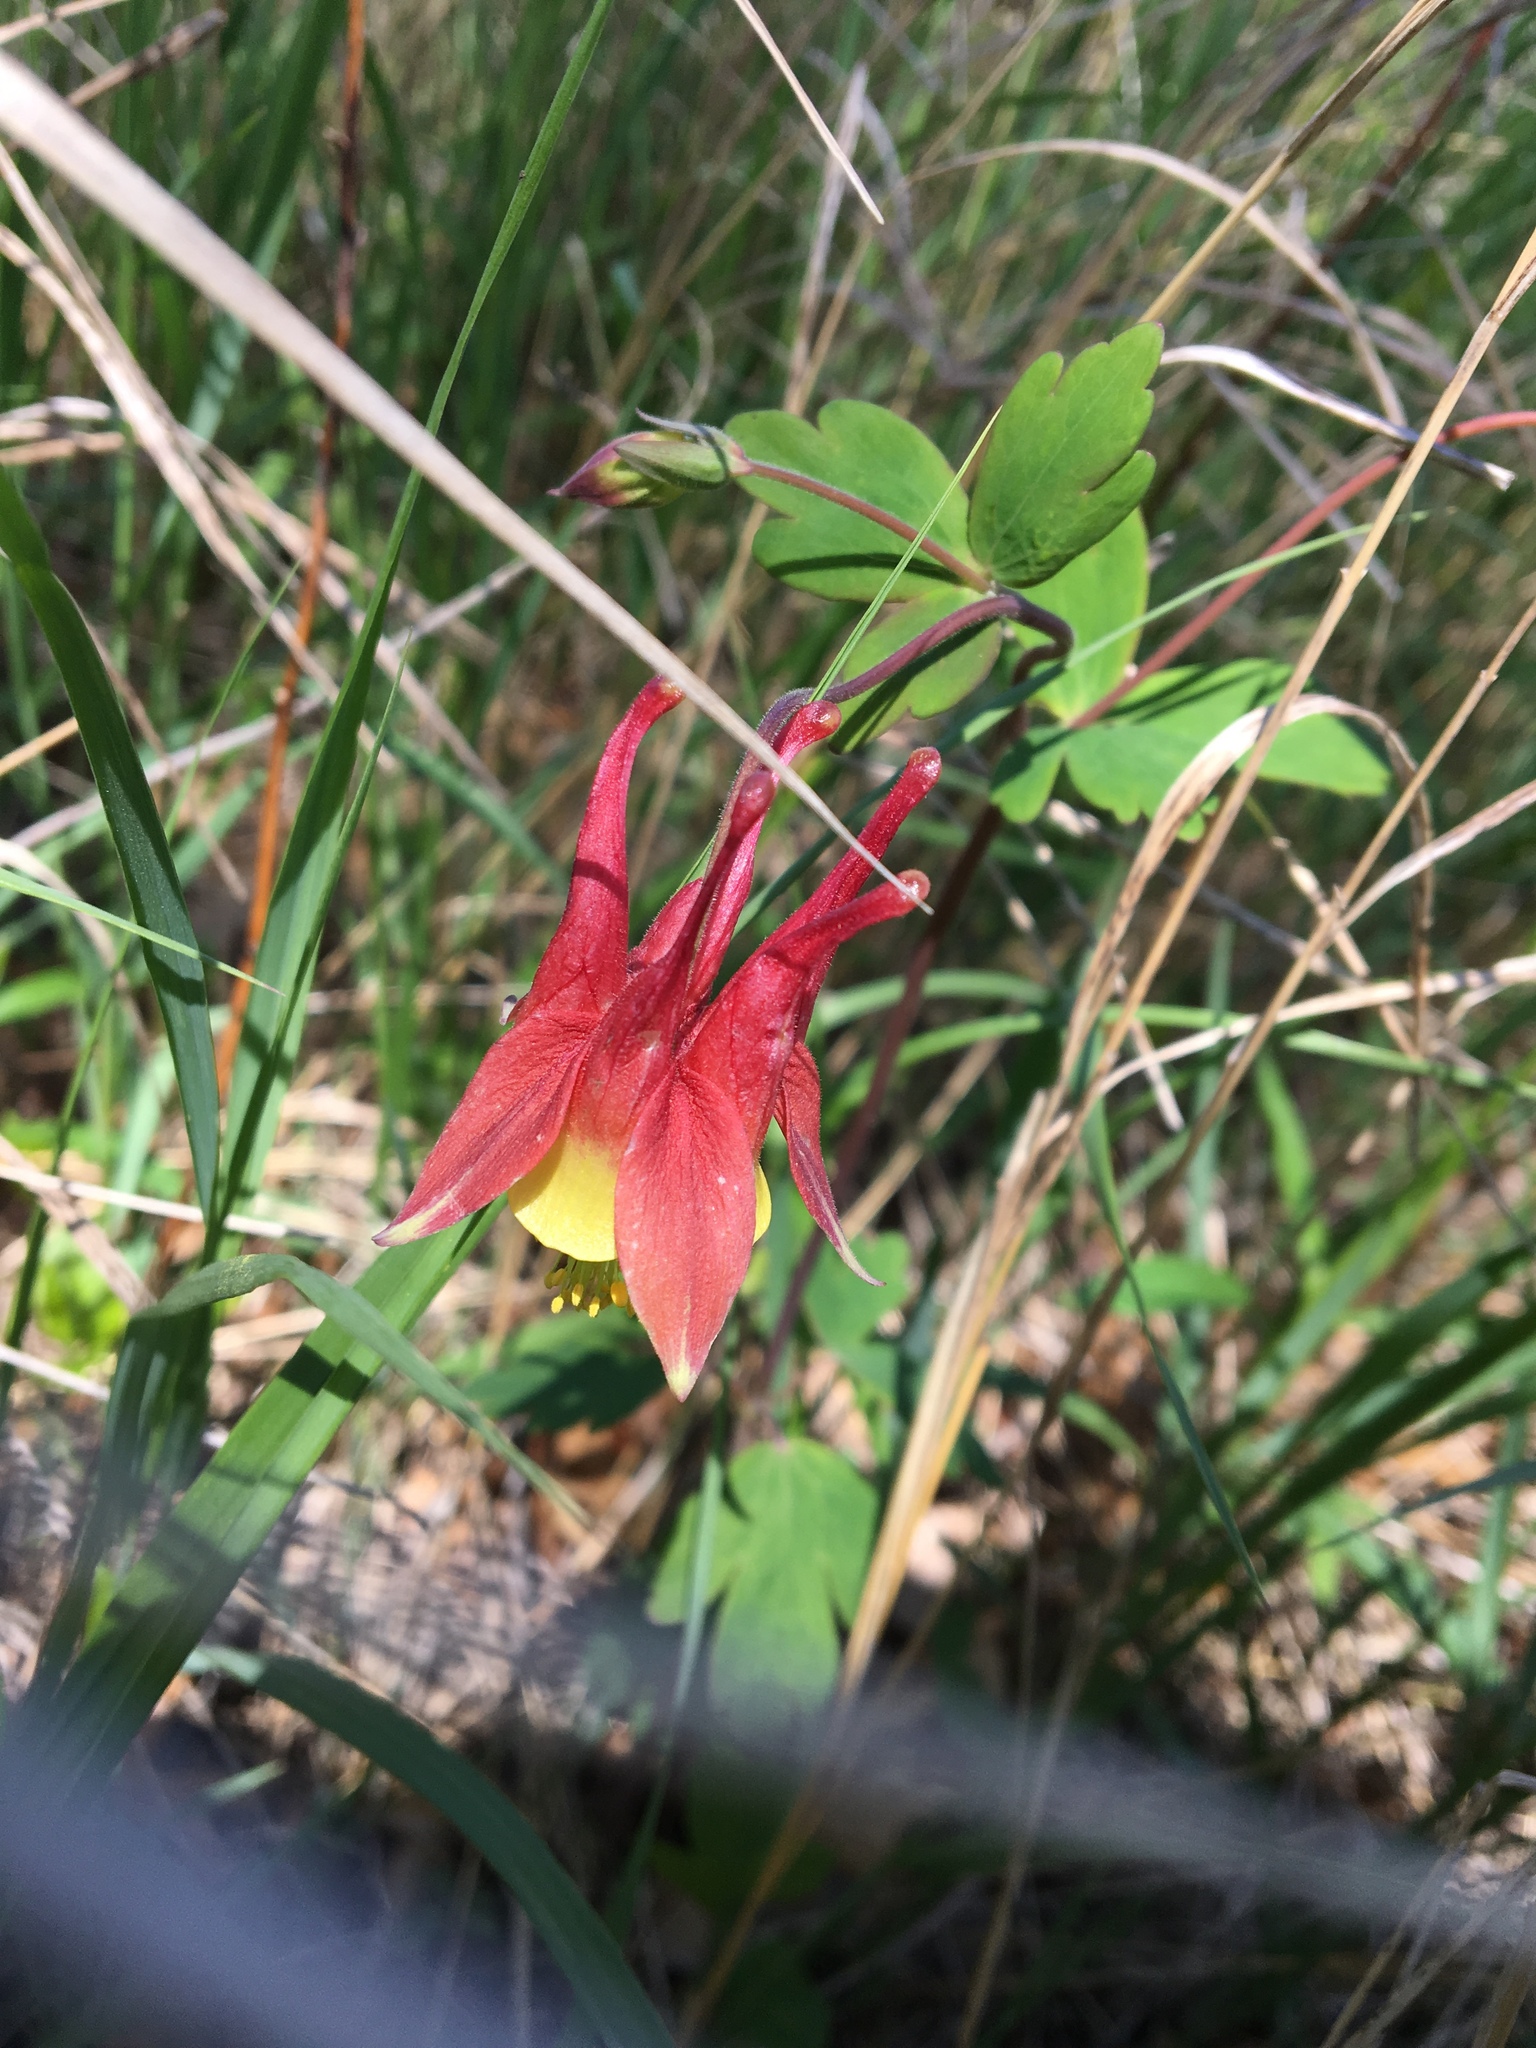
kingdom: Plantae
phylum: Tracheophyta
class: Magnoliopsida
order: Ranunculales
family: Ranunculaceae
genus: Aquilegia
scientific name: Aquilegia canadensis
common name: American columbine
